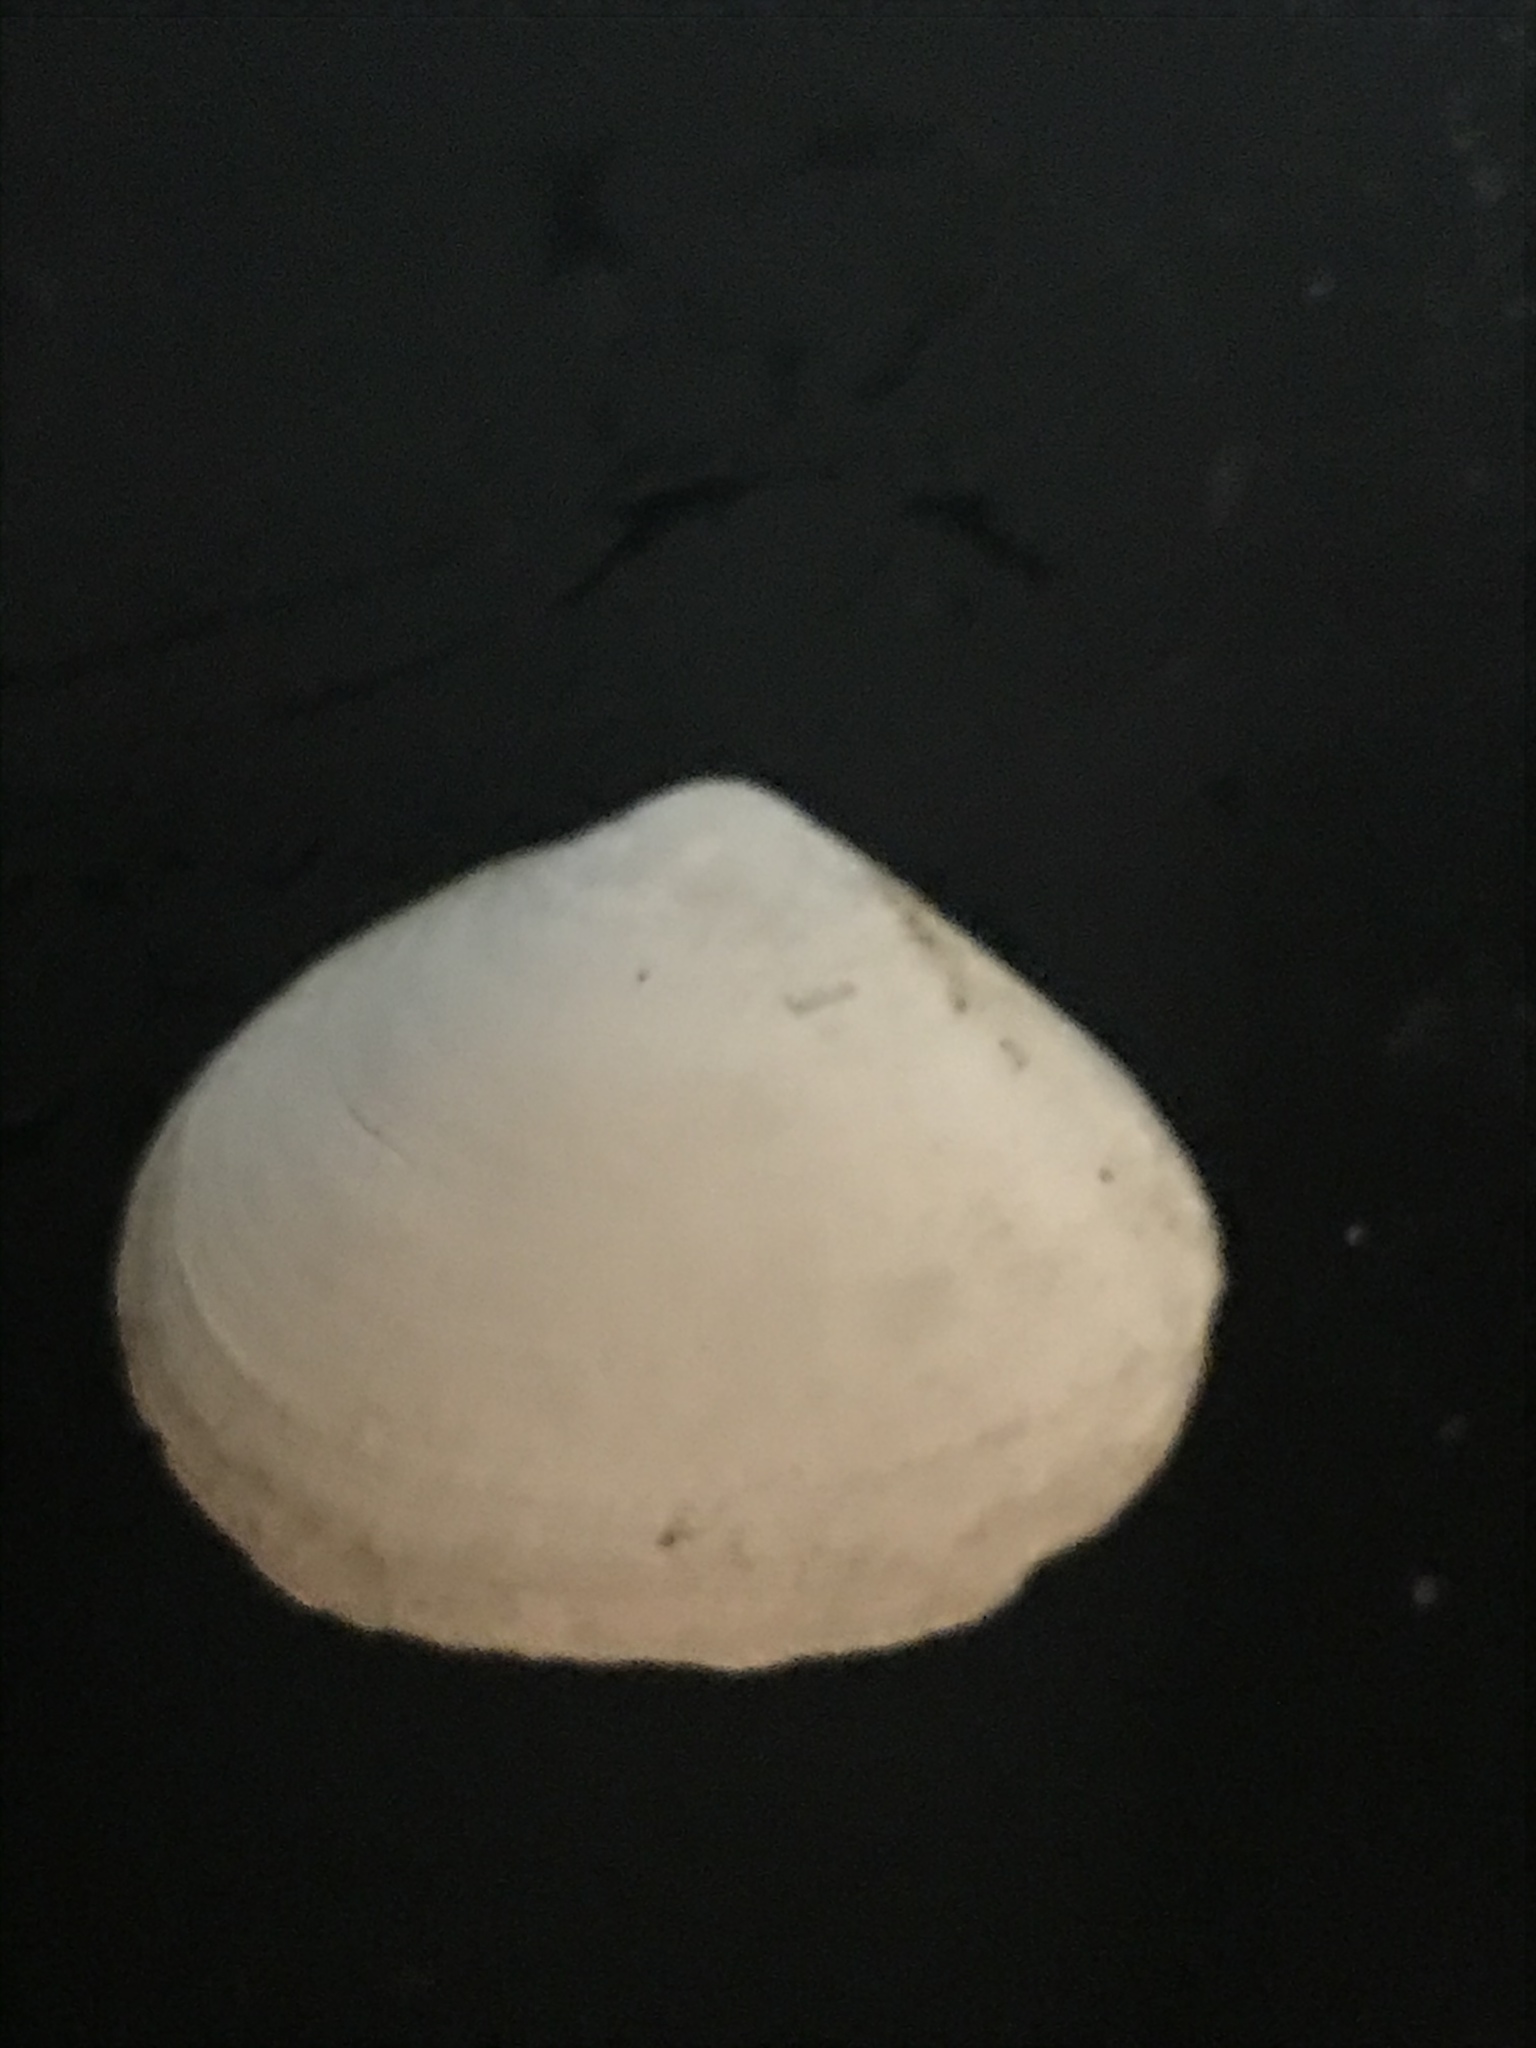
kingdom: Animalia
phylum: Mollusca
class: Bivalvia
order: Cardiida
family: Tellinidae
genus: Macoma
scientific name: Macoma nasuta
